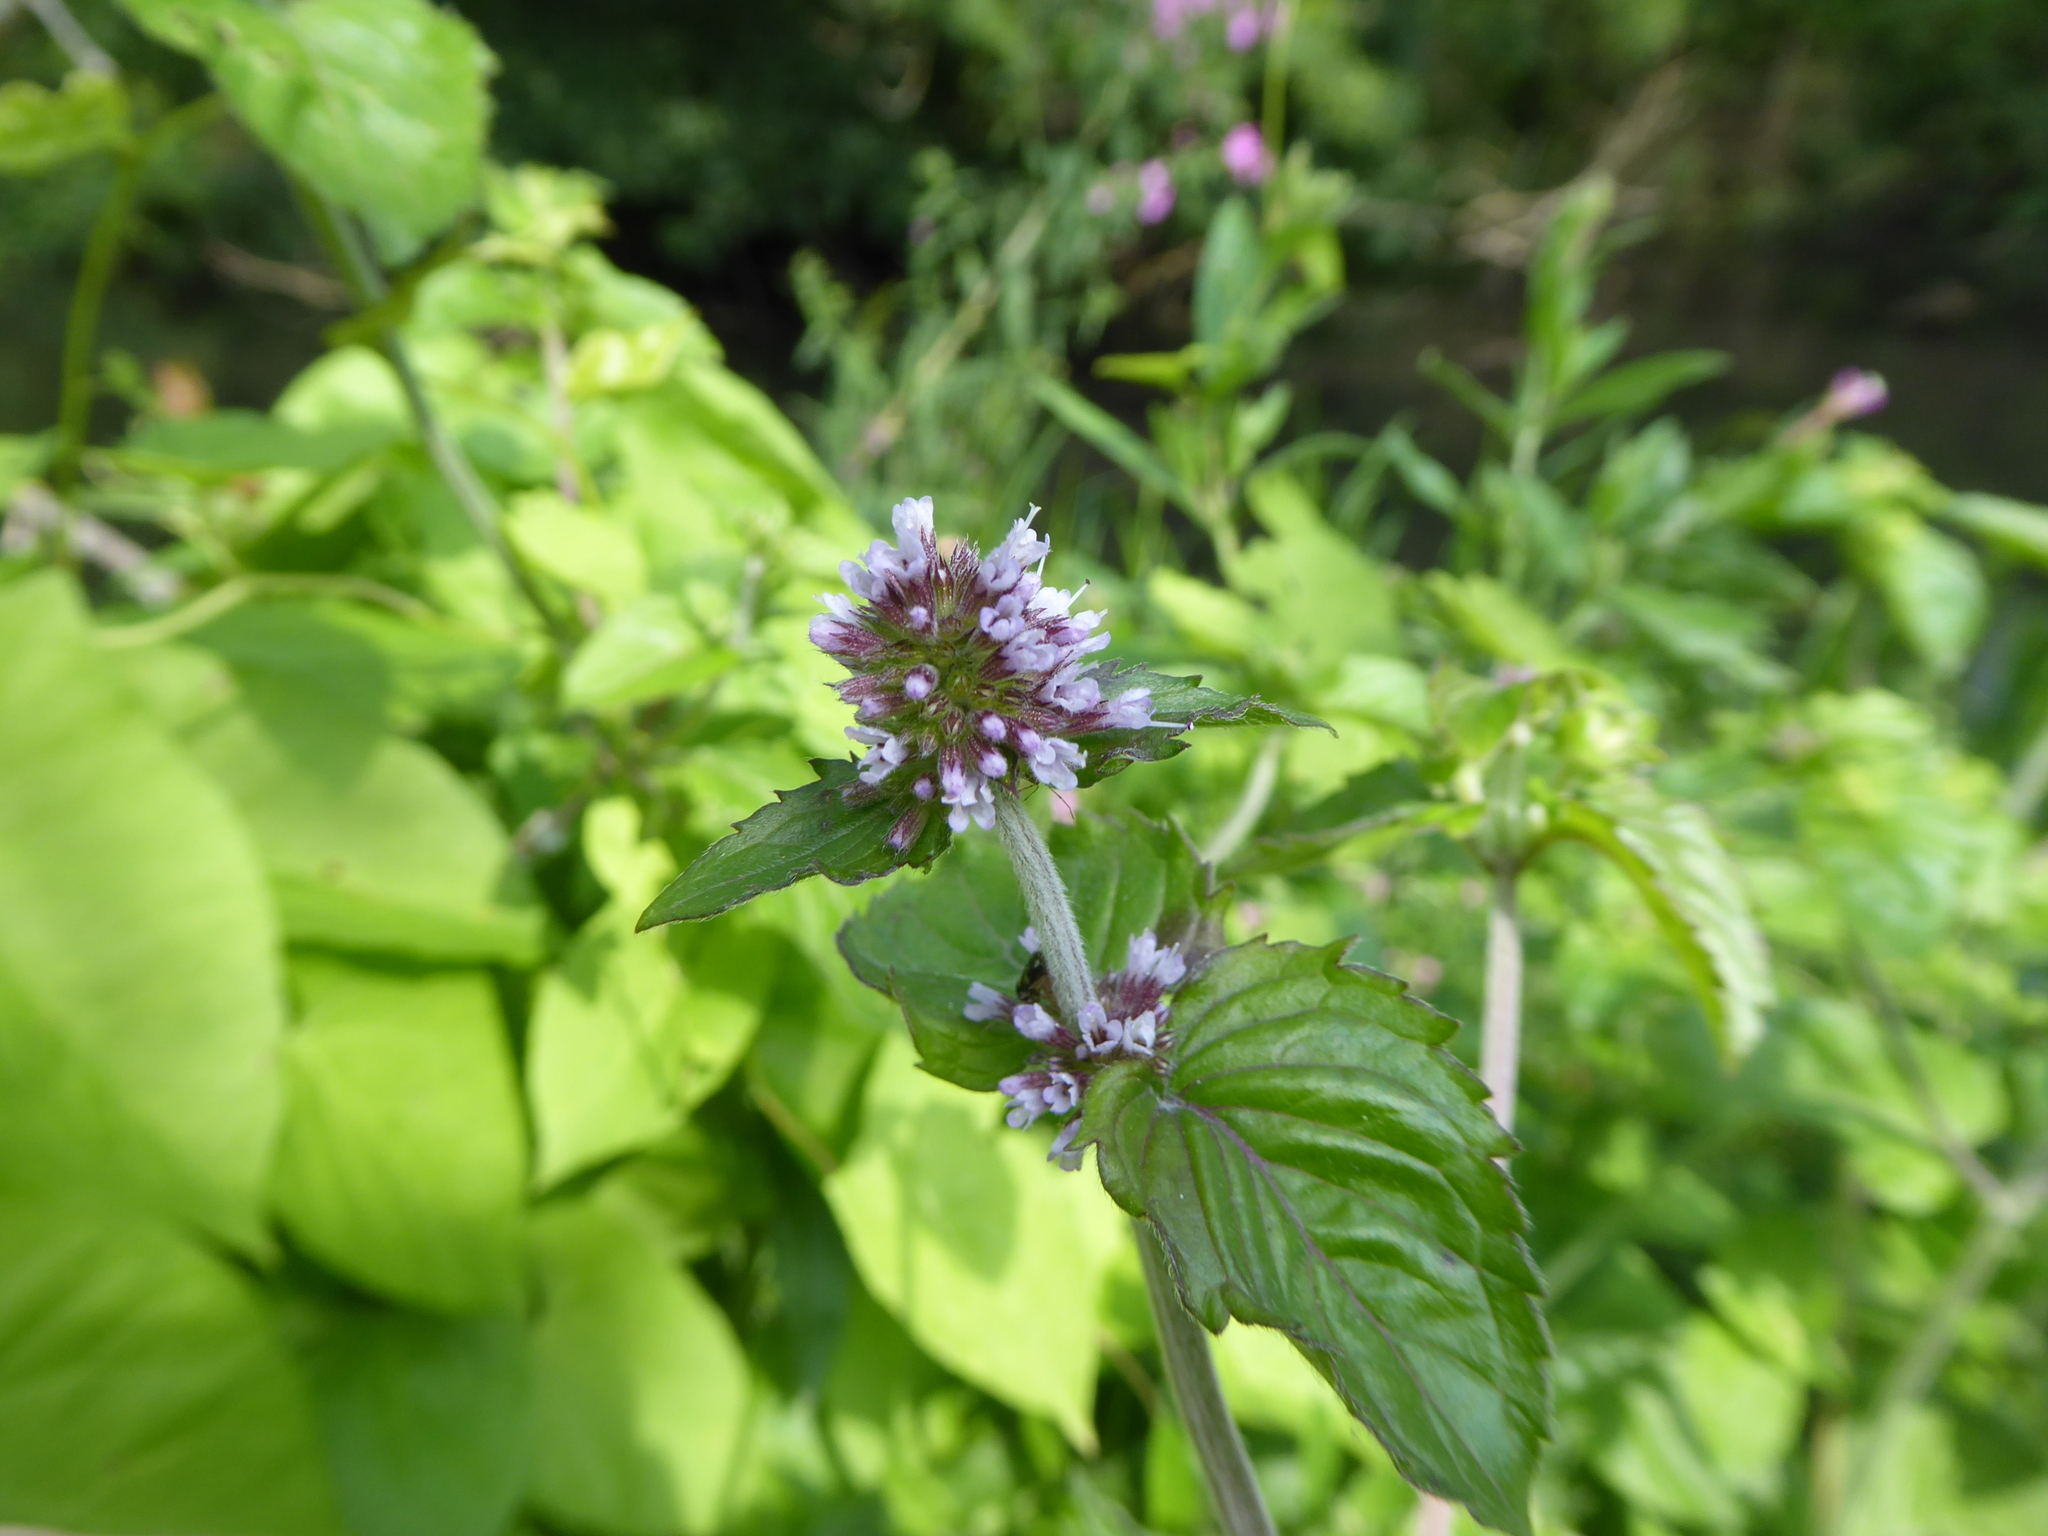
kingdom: Plantae
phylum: Tracheophyta
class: Magnoliopsida
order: Lamiales
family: Lamiaceae
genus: Mentha
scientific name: Mentha aquatica
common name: Water mint
